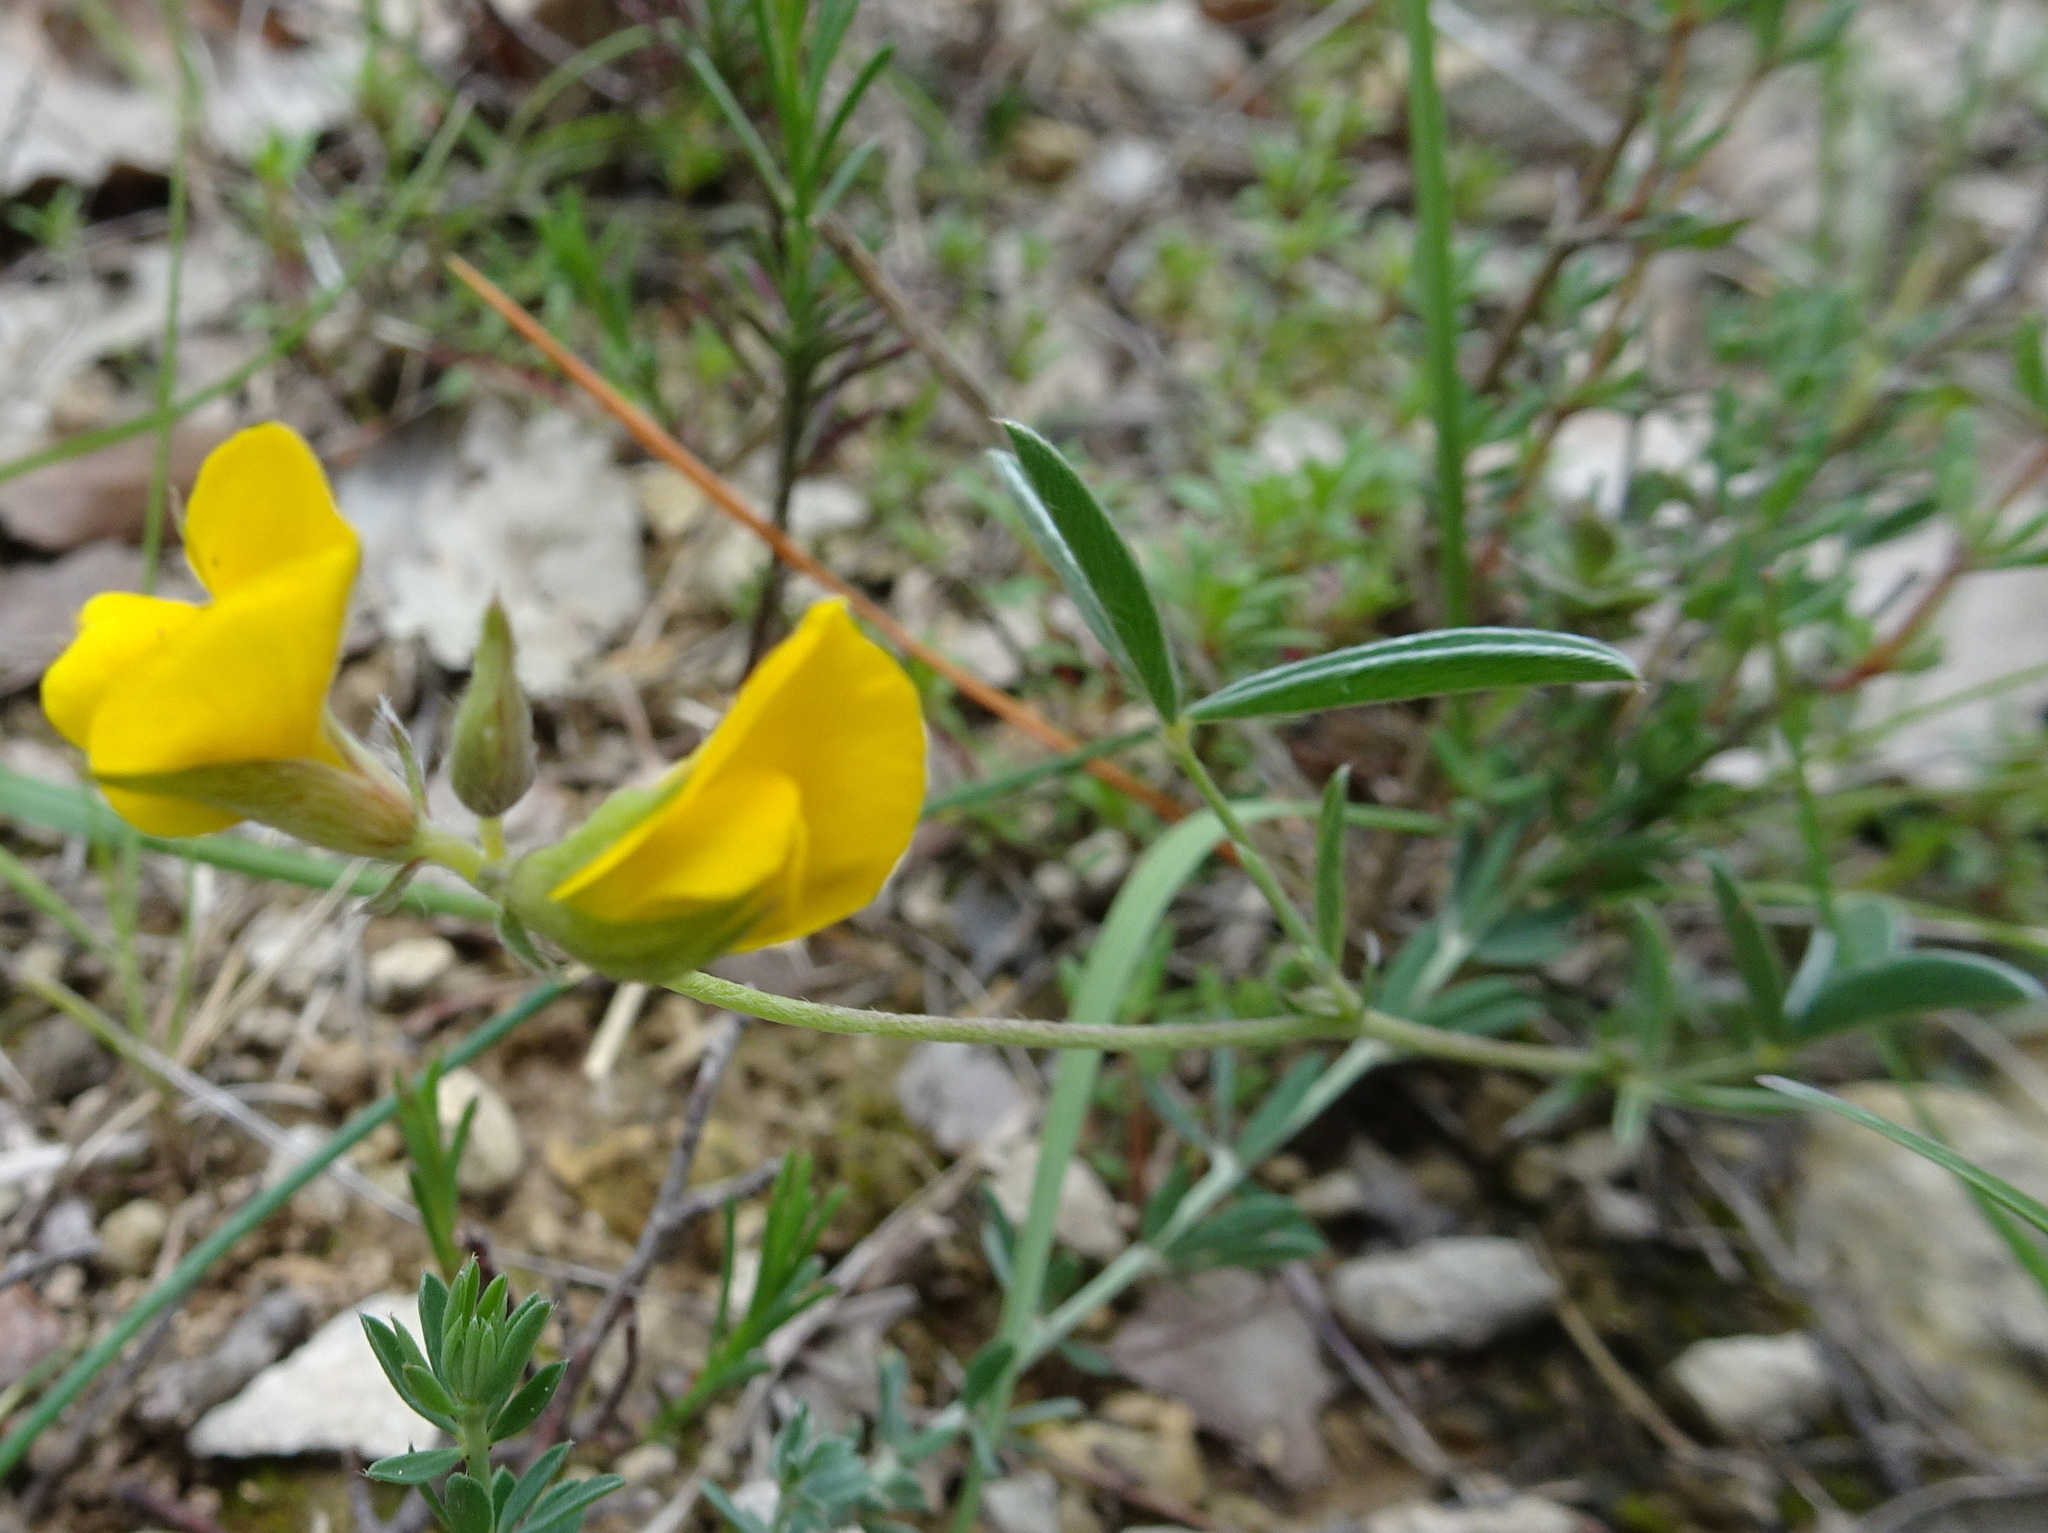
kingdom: Plantae
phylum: Tracheophyta
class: Magnoliopsida
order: Fabales
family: Fabaceae
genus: Argyrolobium
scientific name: Argyrolobium zanonii
